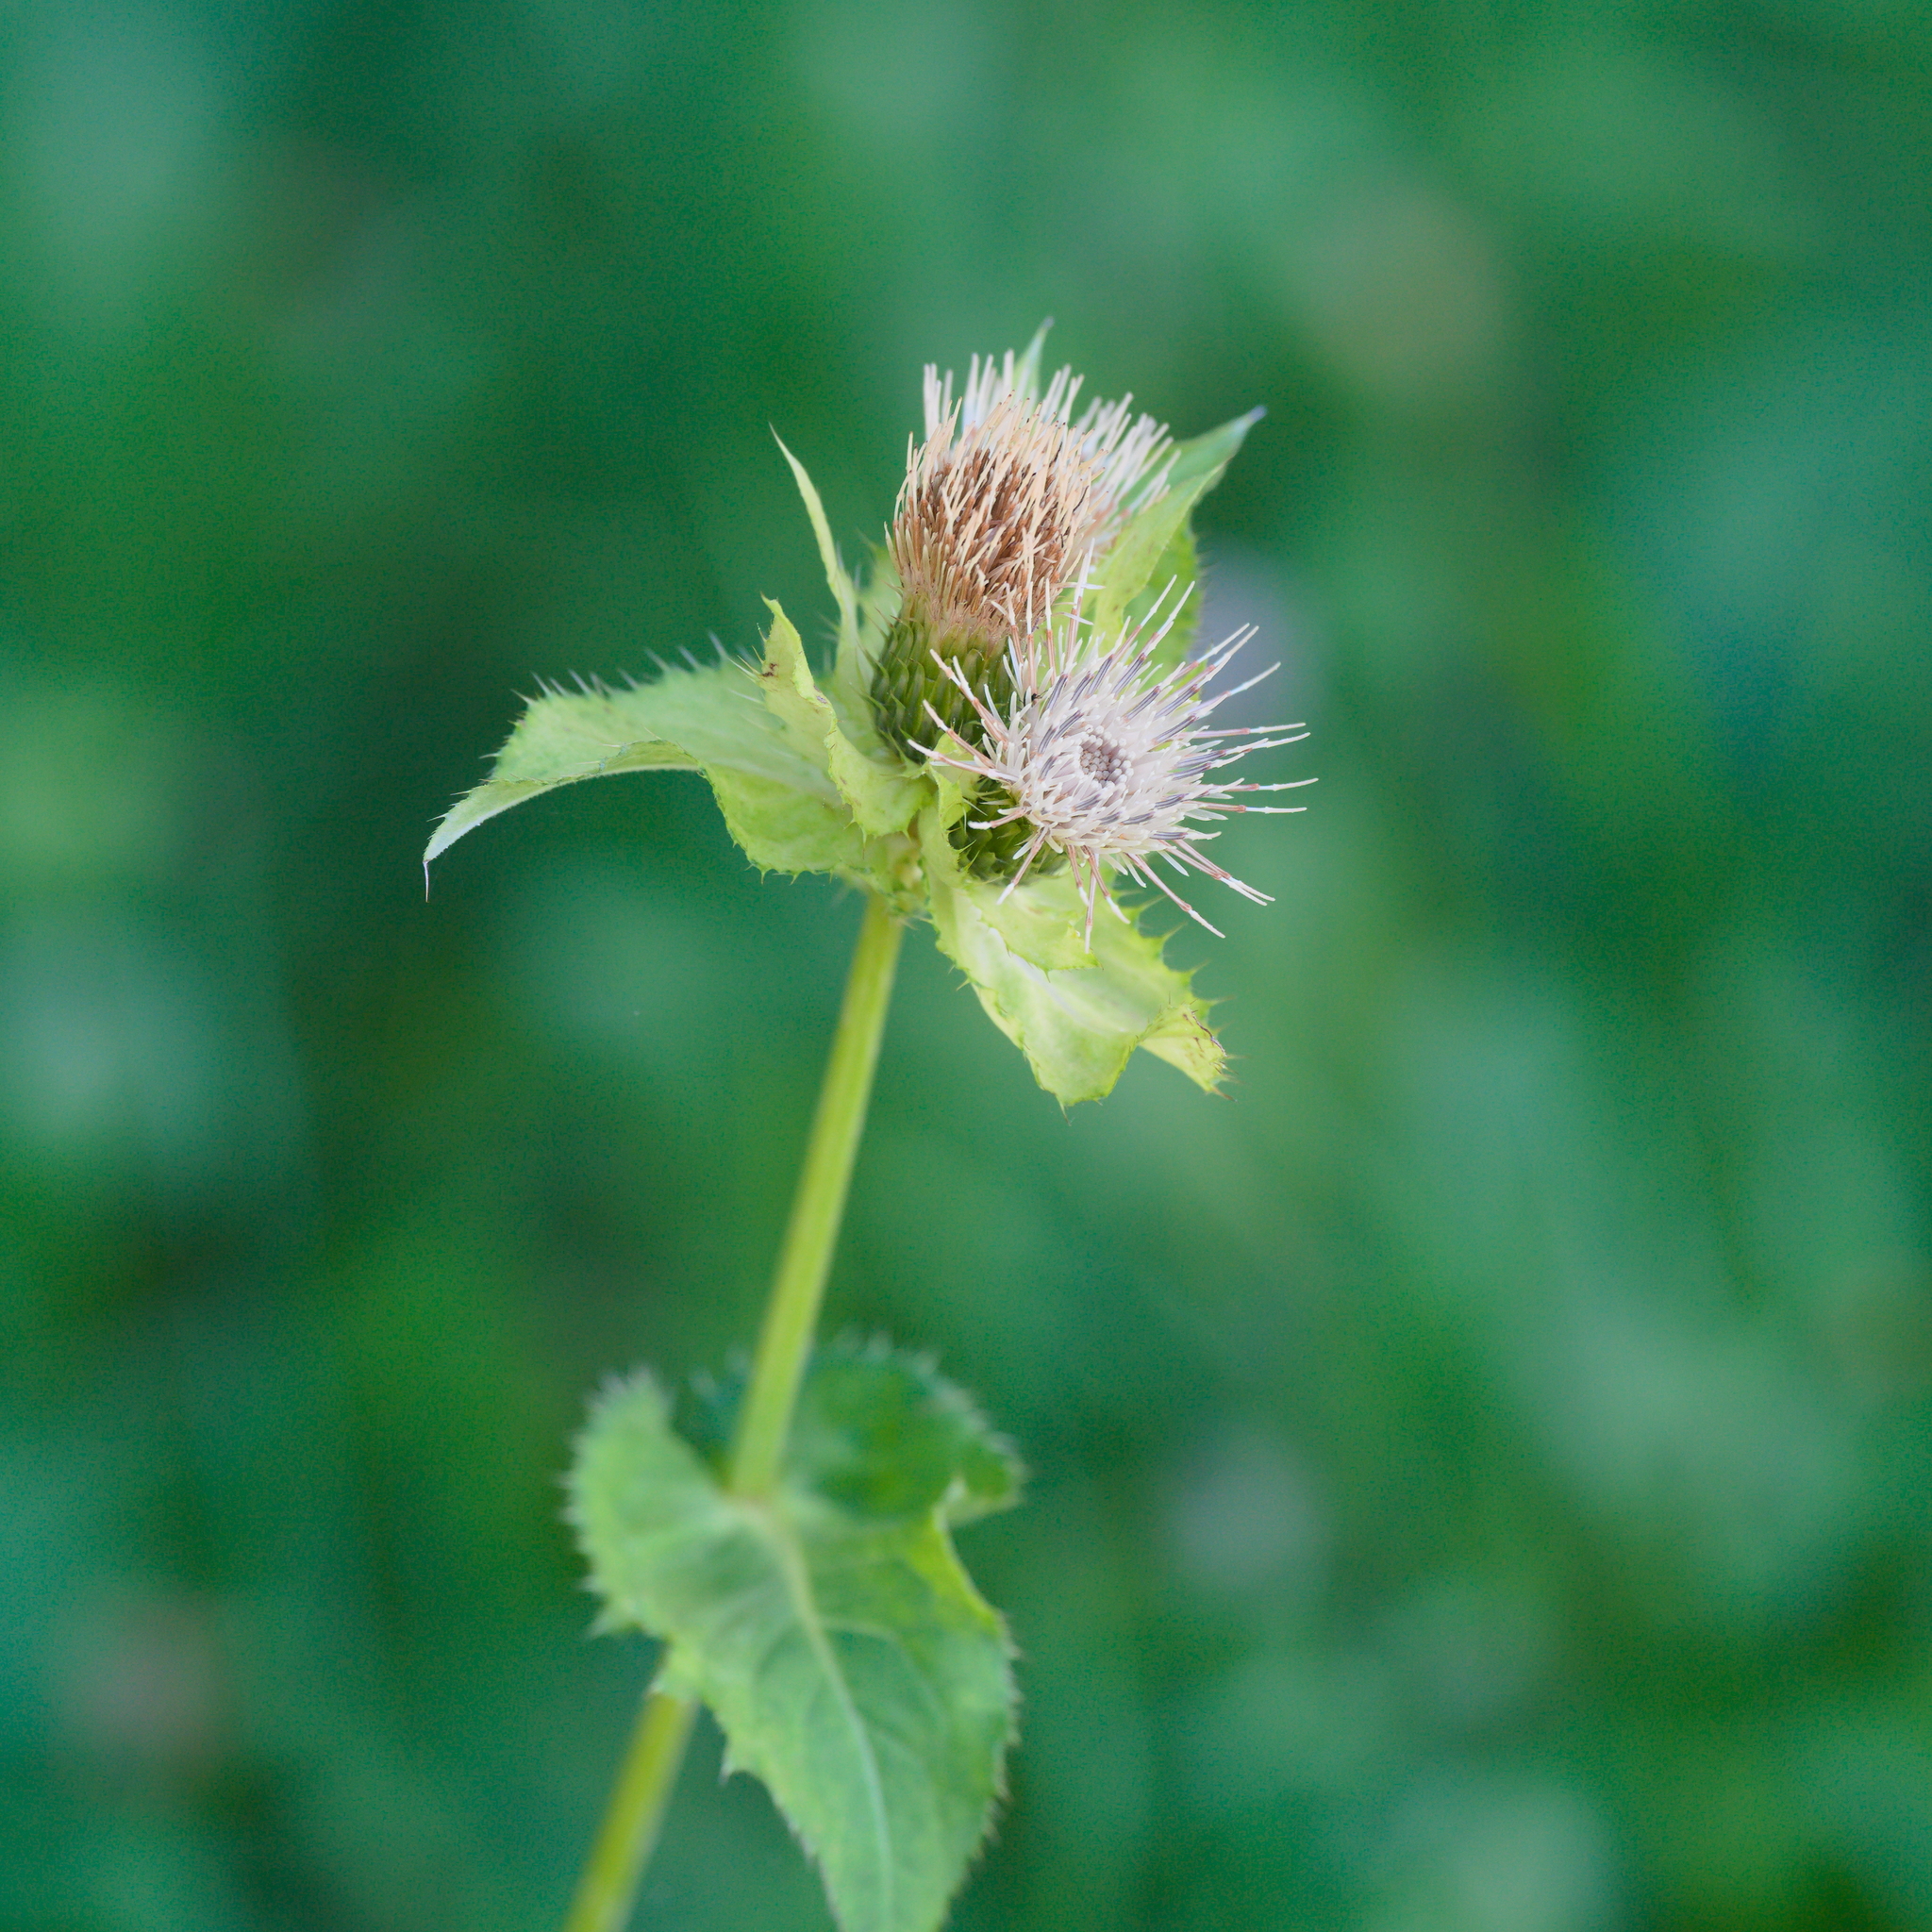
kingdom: Plantae
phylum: Tracheophyta
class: Magnoliopsida
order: Asterales
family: Asteraceae
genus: Cirsium
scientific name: Cirsium oleraceum
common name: Cabbage thistle
